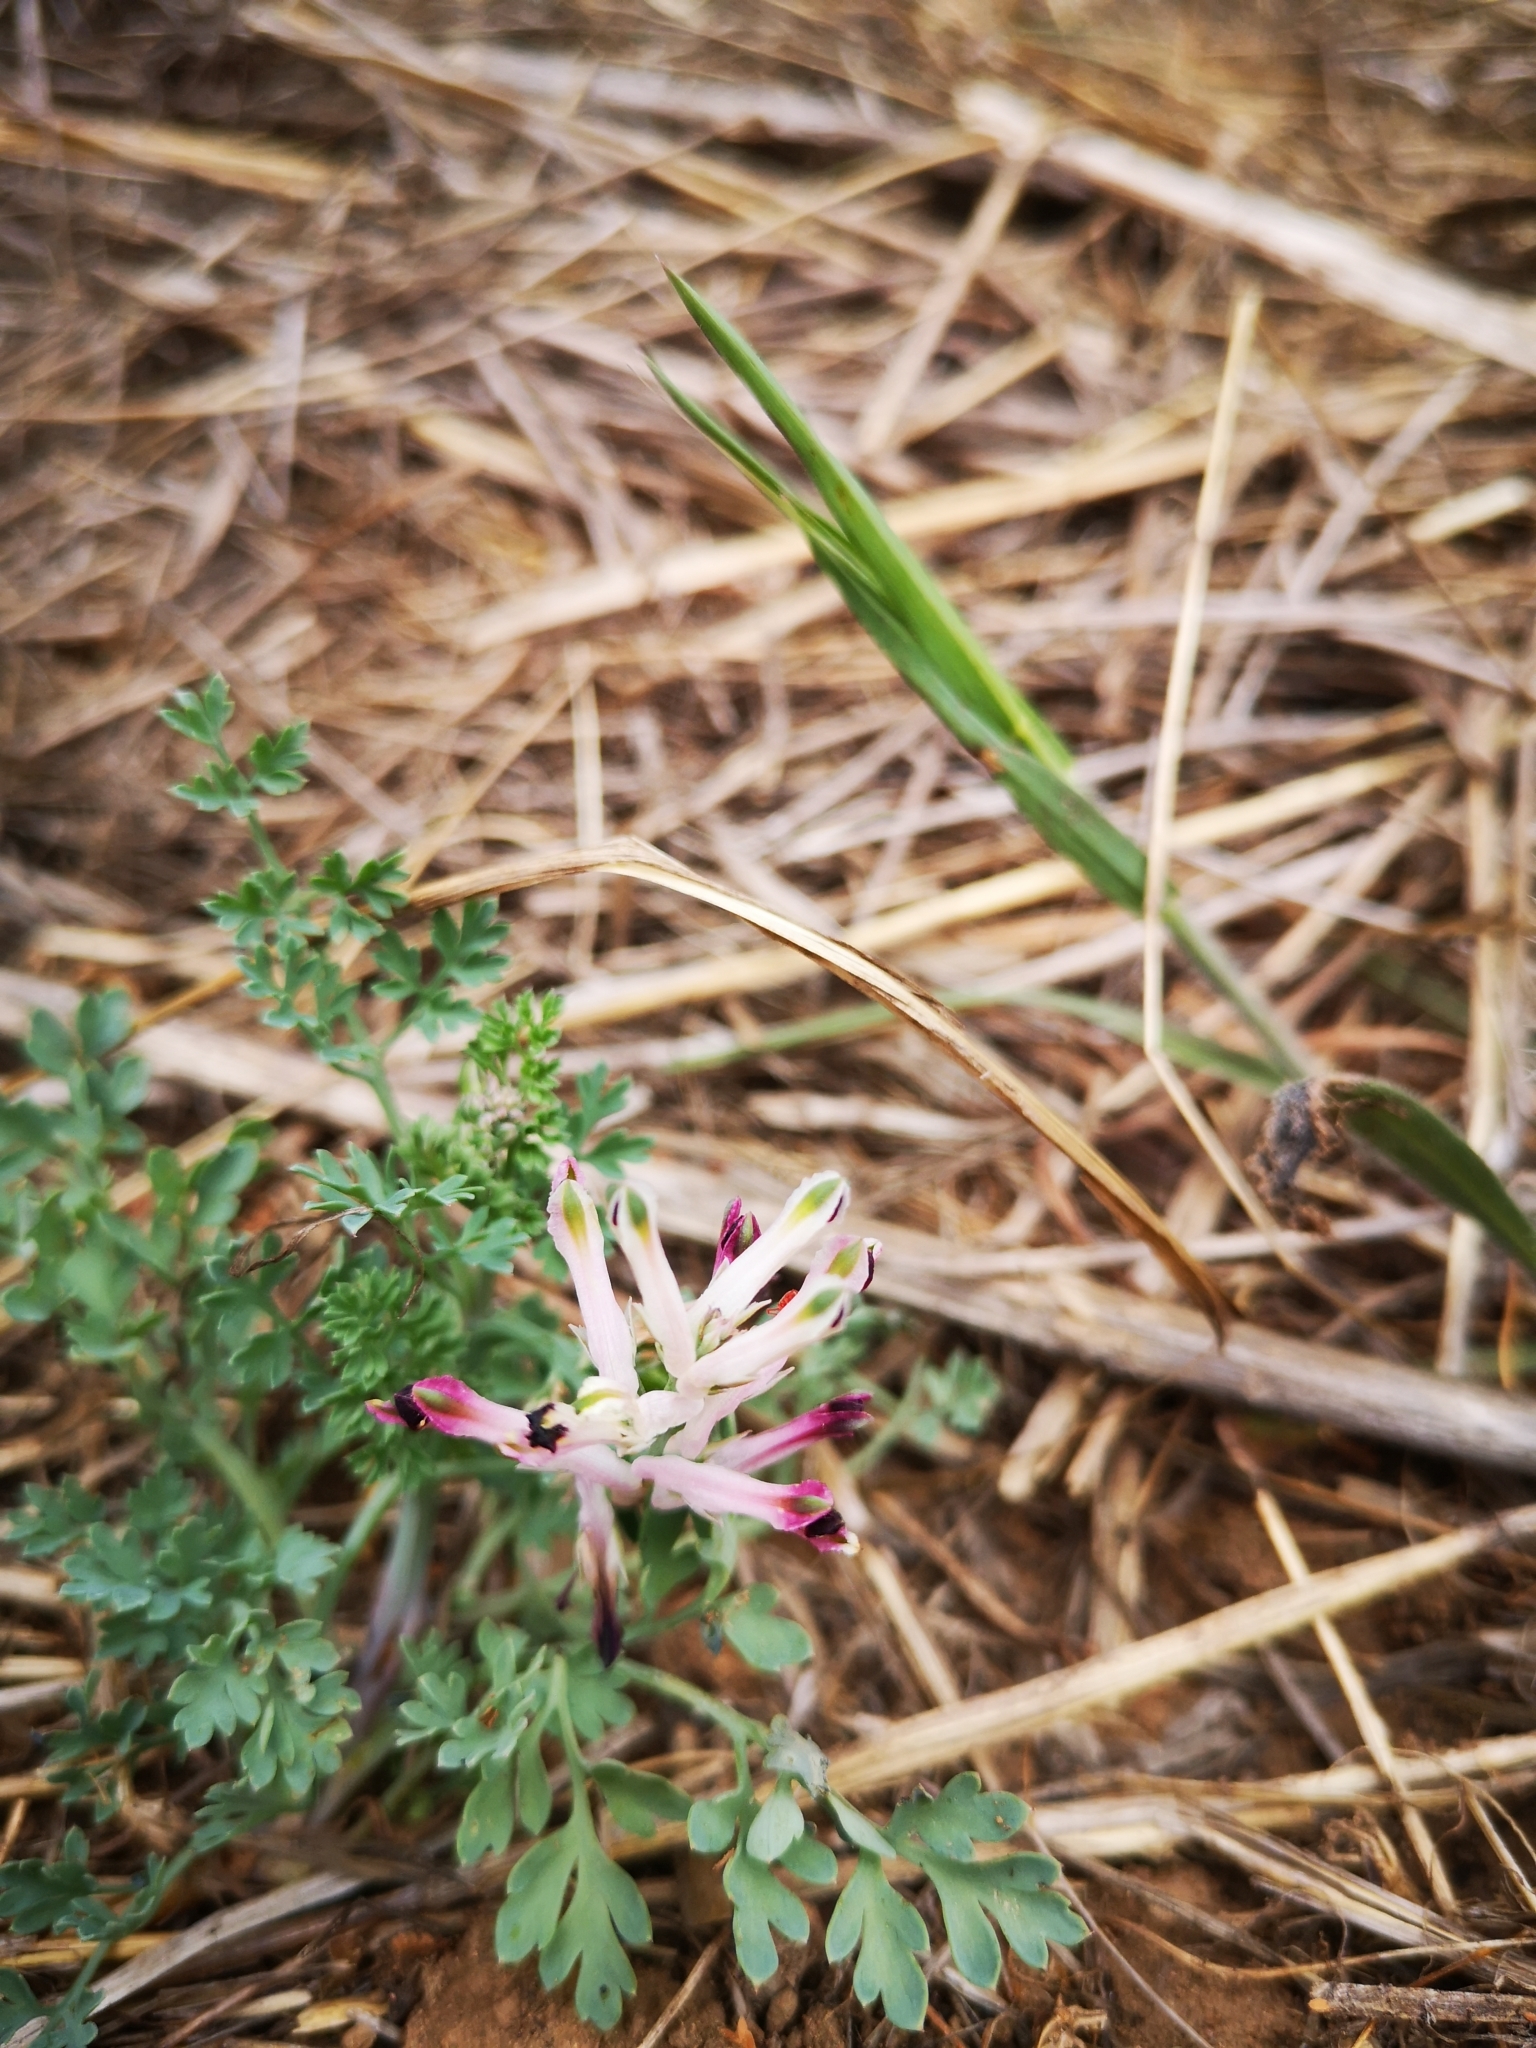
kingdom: Plantae
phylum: Tracheophyta
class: Magnoliopsida
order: Ranunculales
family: Papaveraceae
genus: Fumaria
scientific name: Fumaria agraria
